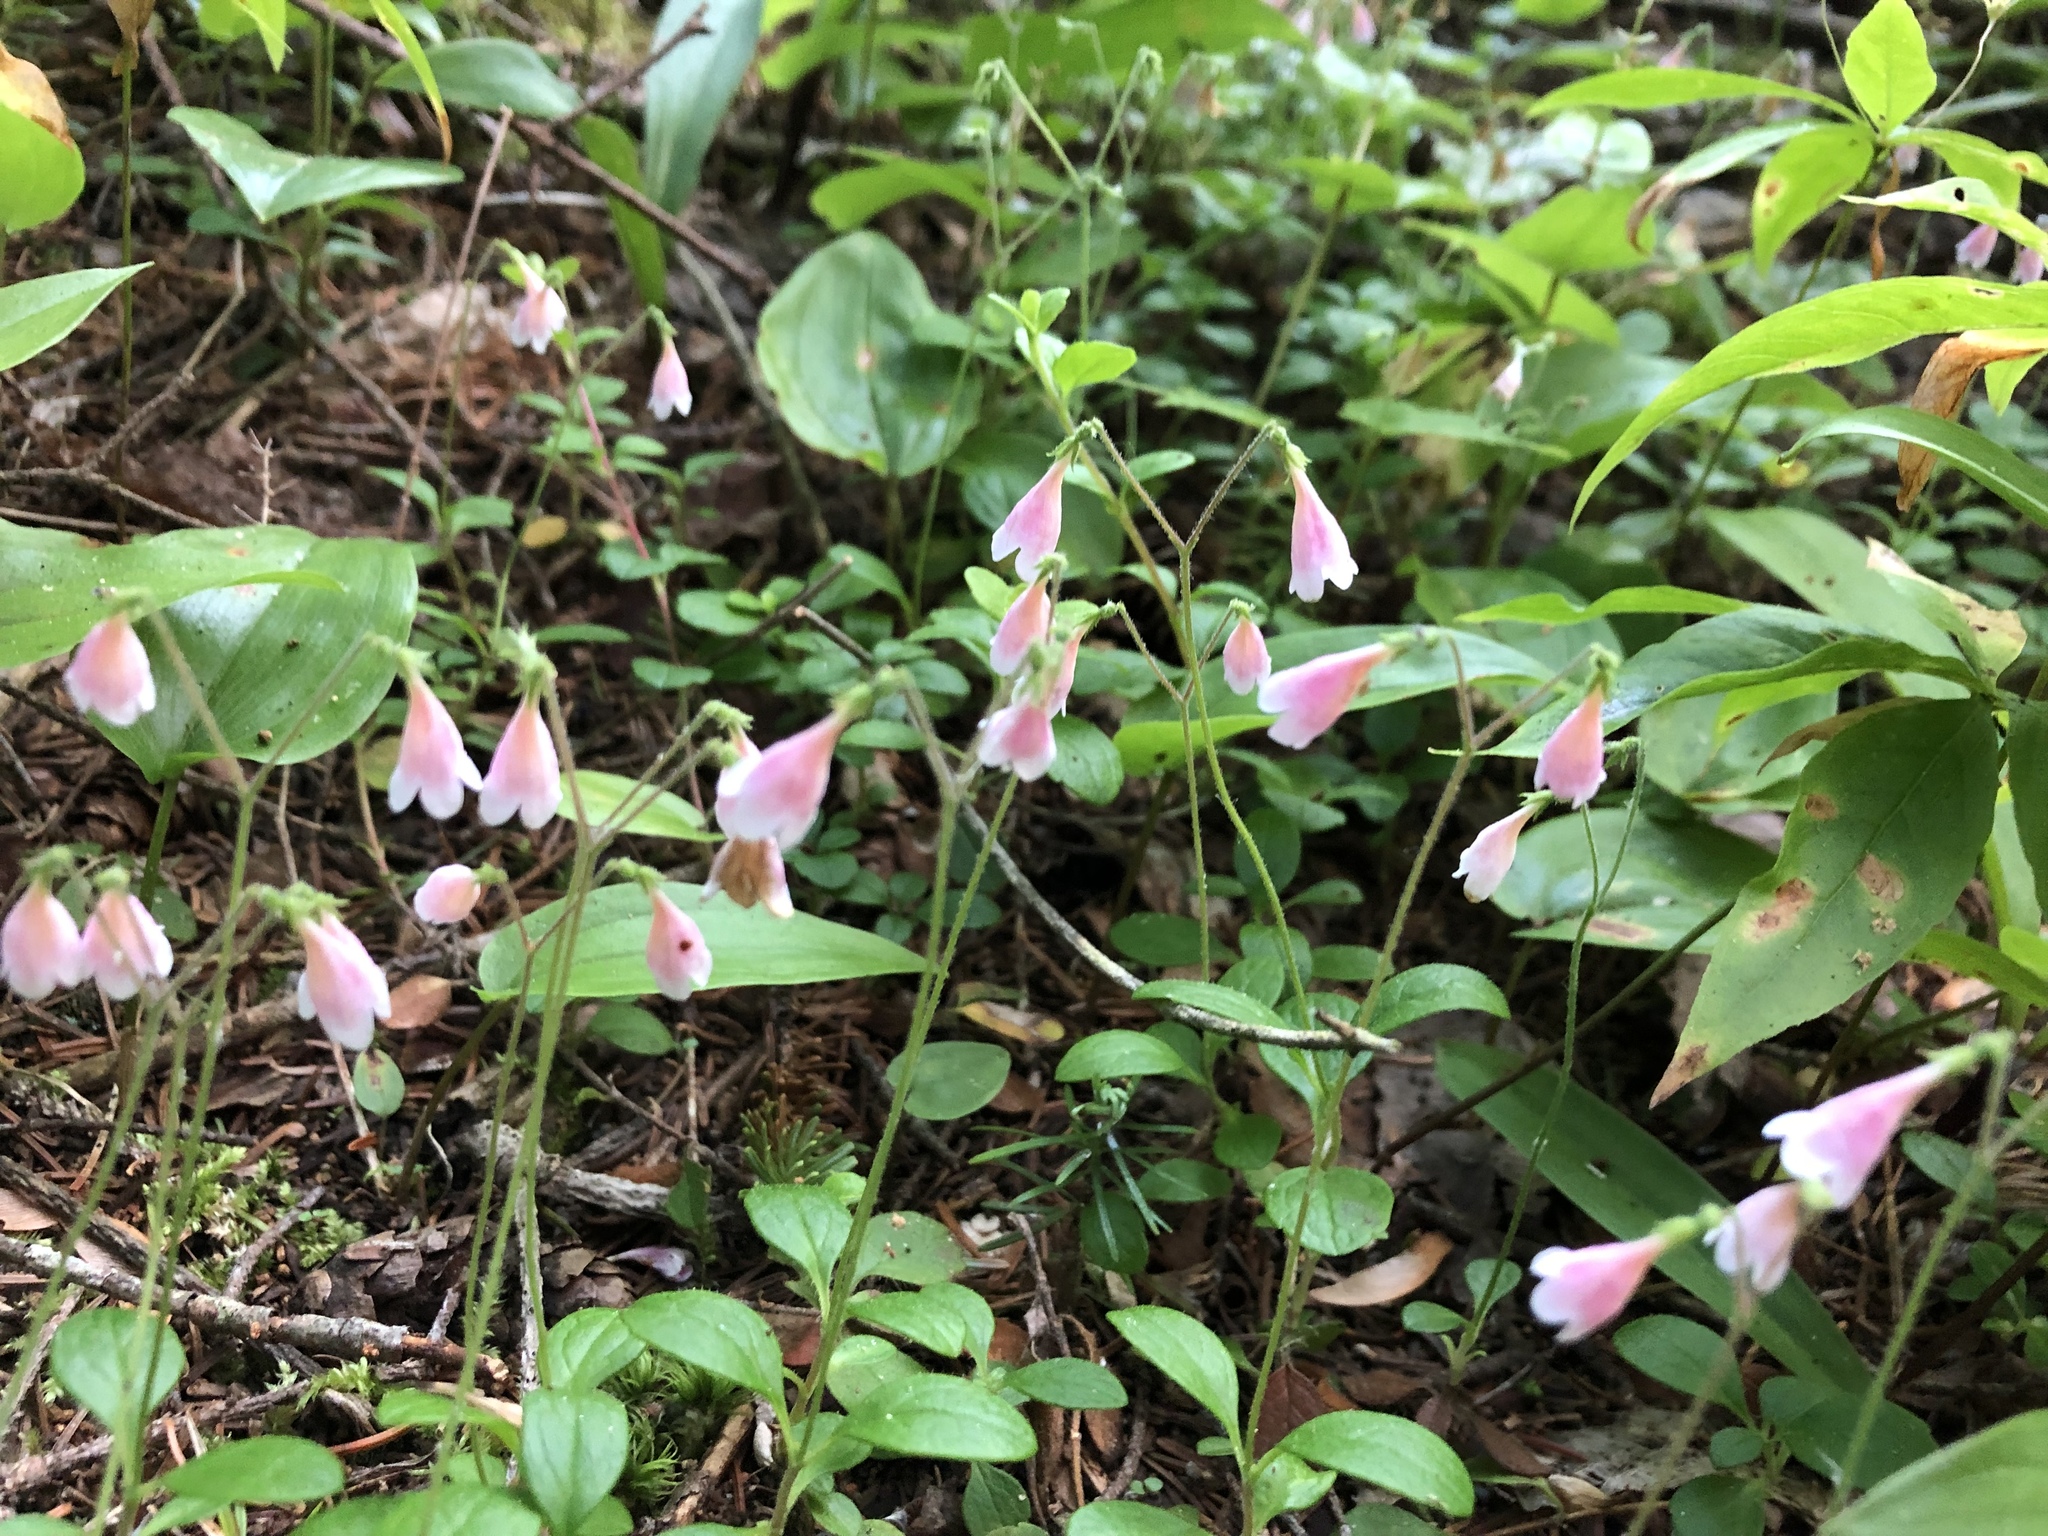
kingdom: Plantae
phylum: Tracheophyta
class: Magnoliopsida
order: Dipsacales
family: Caprifoliaceae
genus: Linnaea
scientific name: Linnaea borealis
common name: Twinflower
